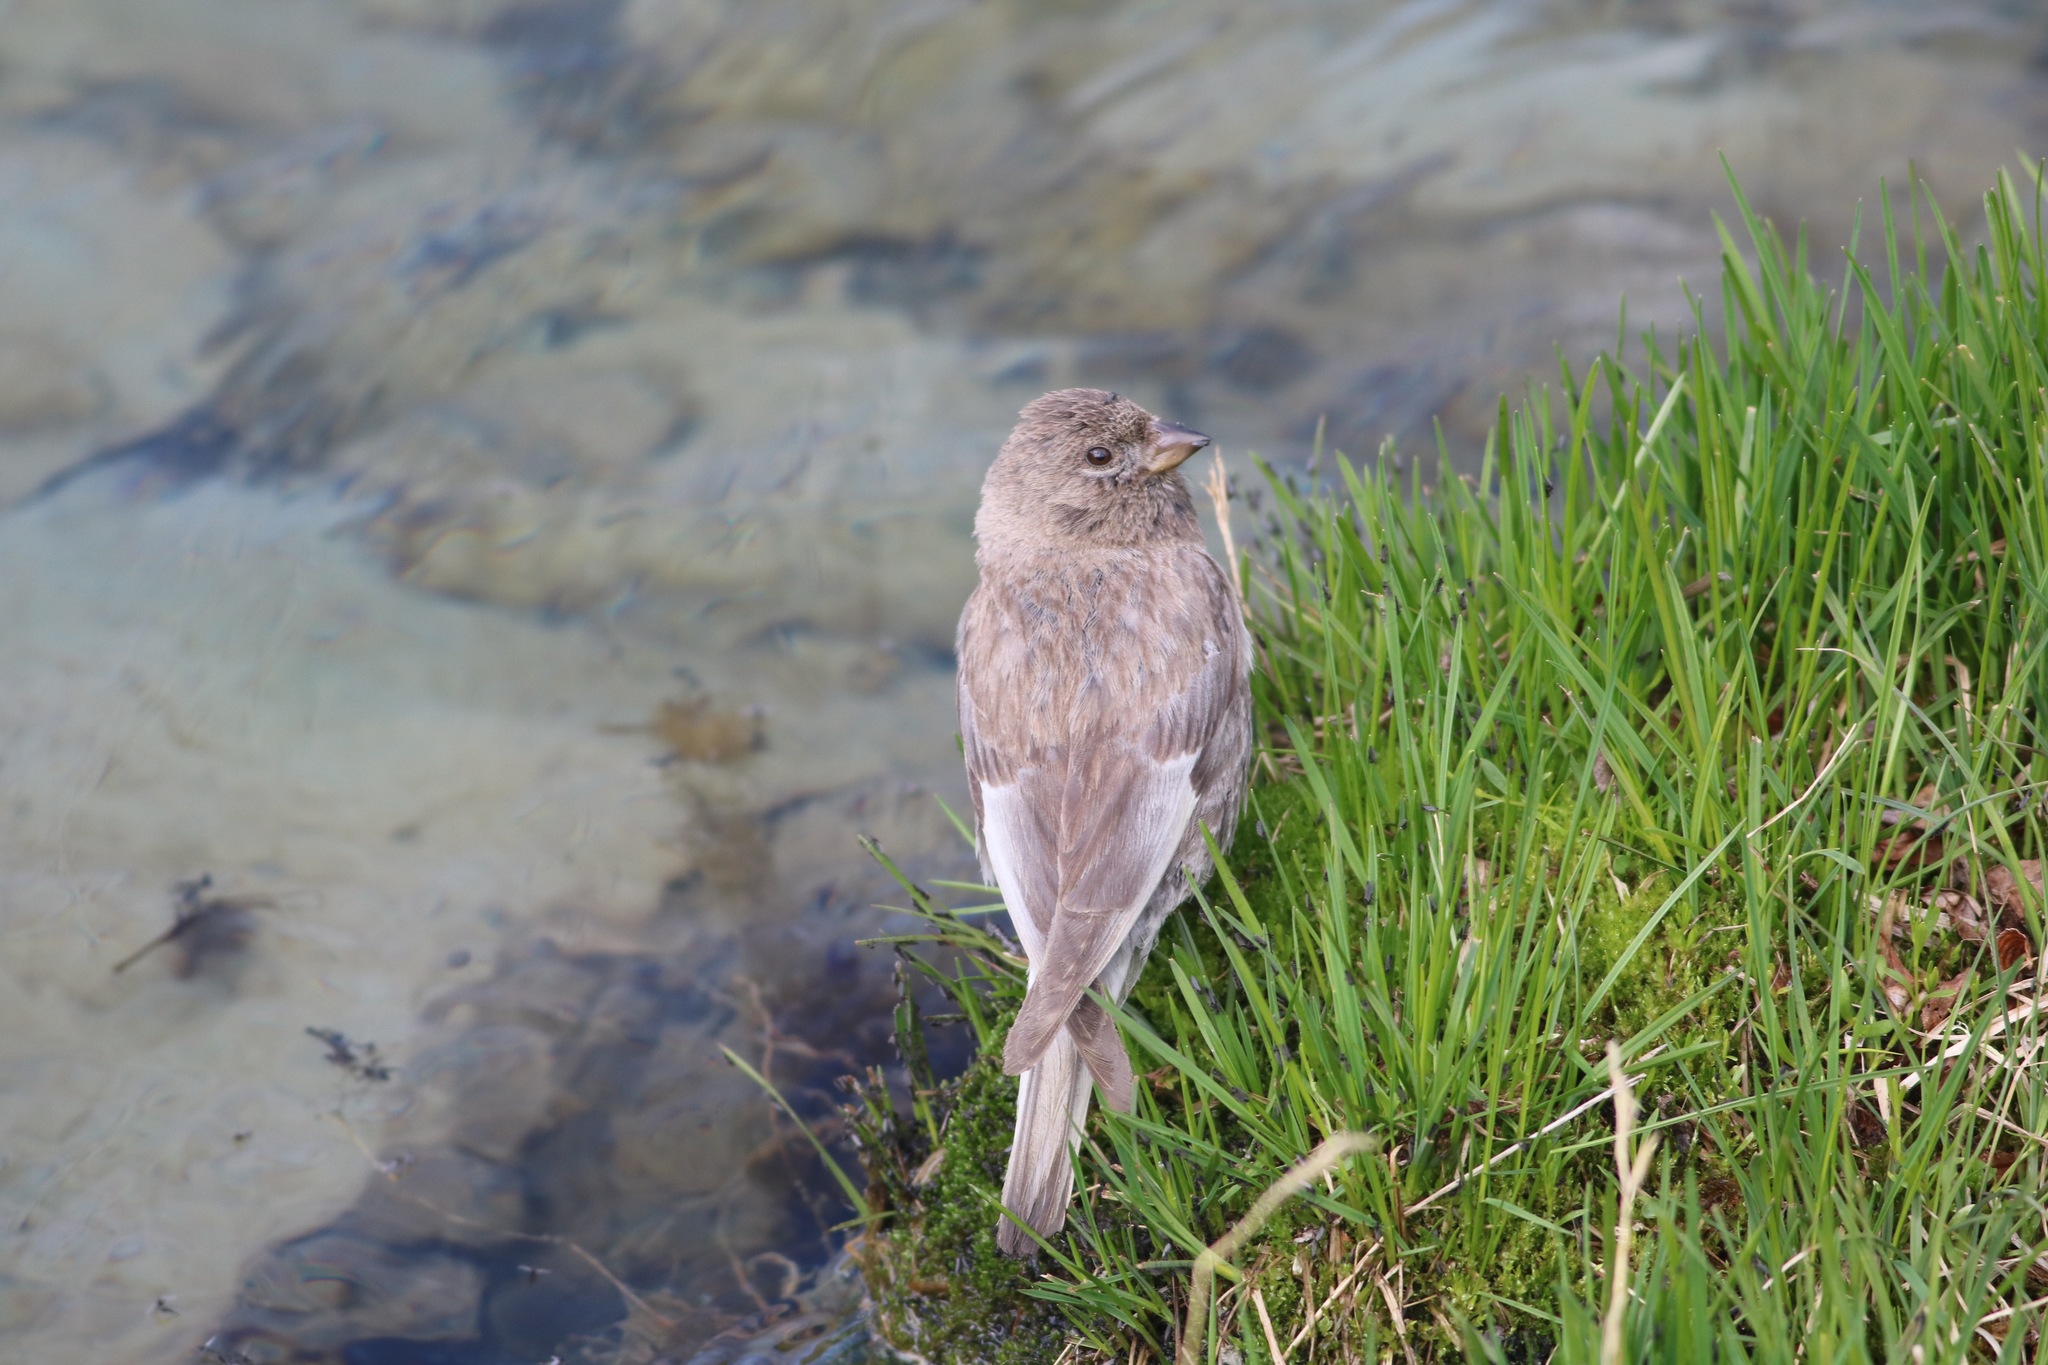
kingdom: Animalia
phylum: Chordata
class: Aves
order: Passeriformes
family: Fringillidae
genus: Leucosticte
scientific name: Leucosticte arctoa
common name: Asian rosy finch
